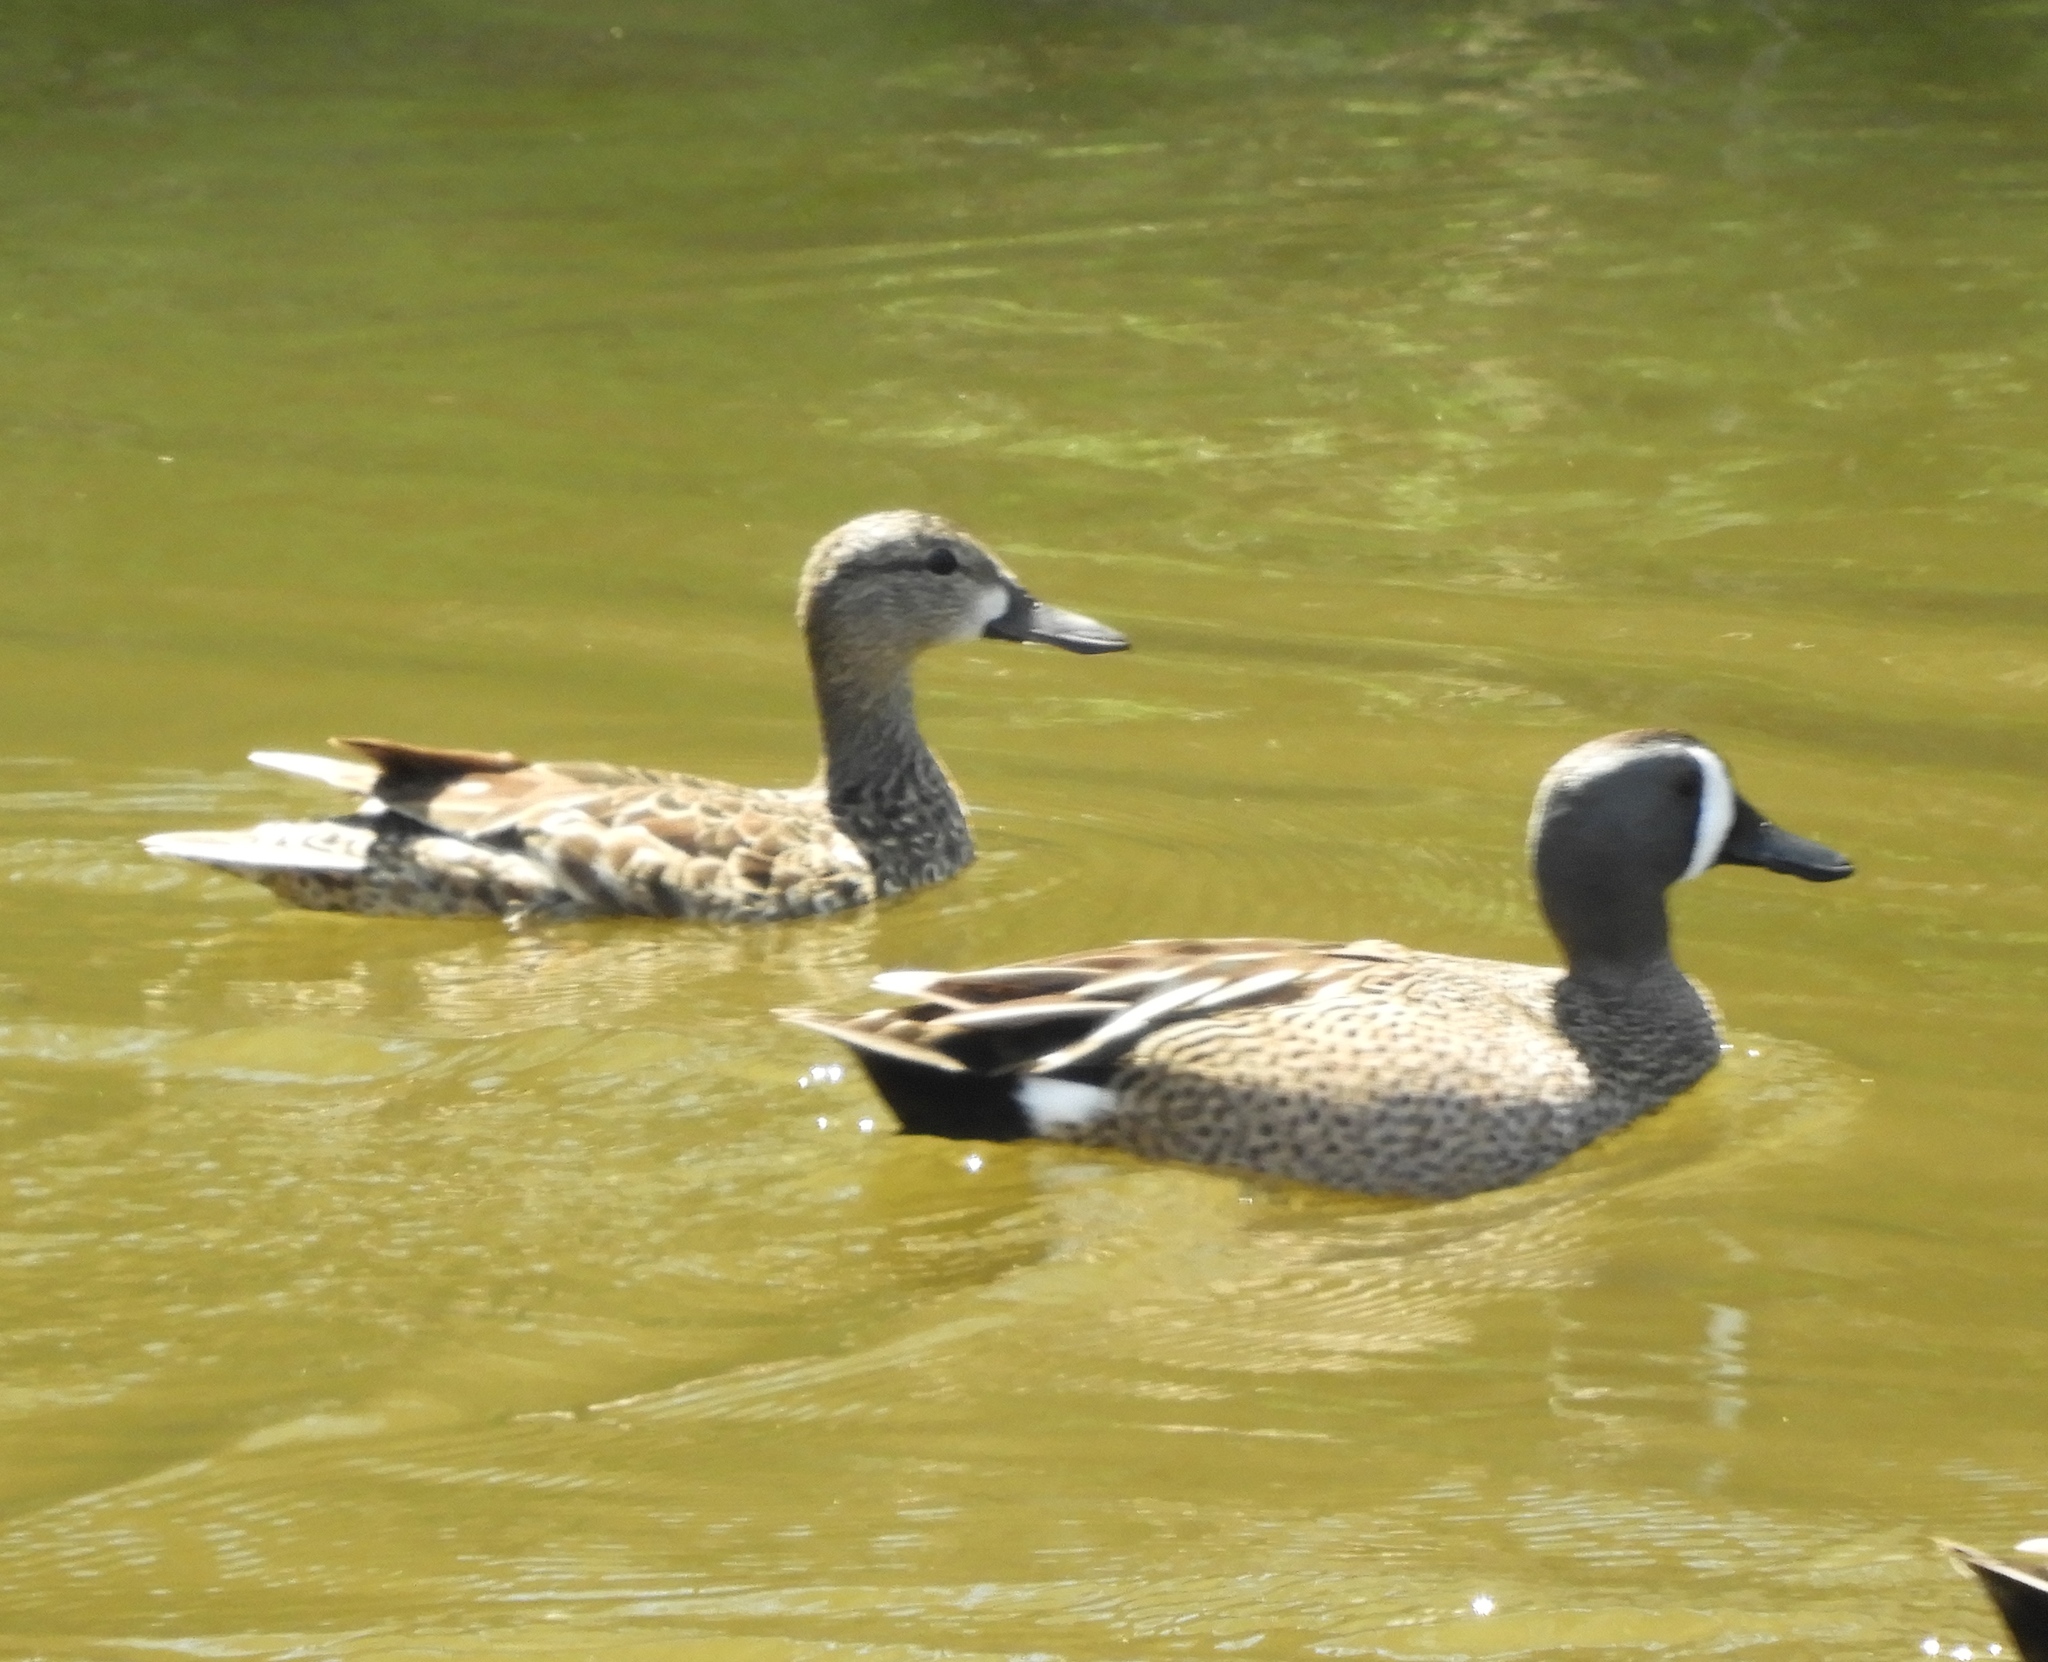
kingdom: Animalia
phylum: Chordata
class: Aves
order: Anseriformes
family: Anatidae
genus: Spatula
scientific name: Spatula discors
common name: Blue-winged teal
